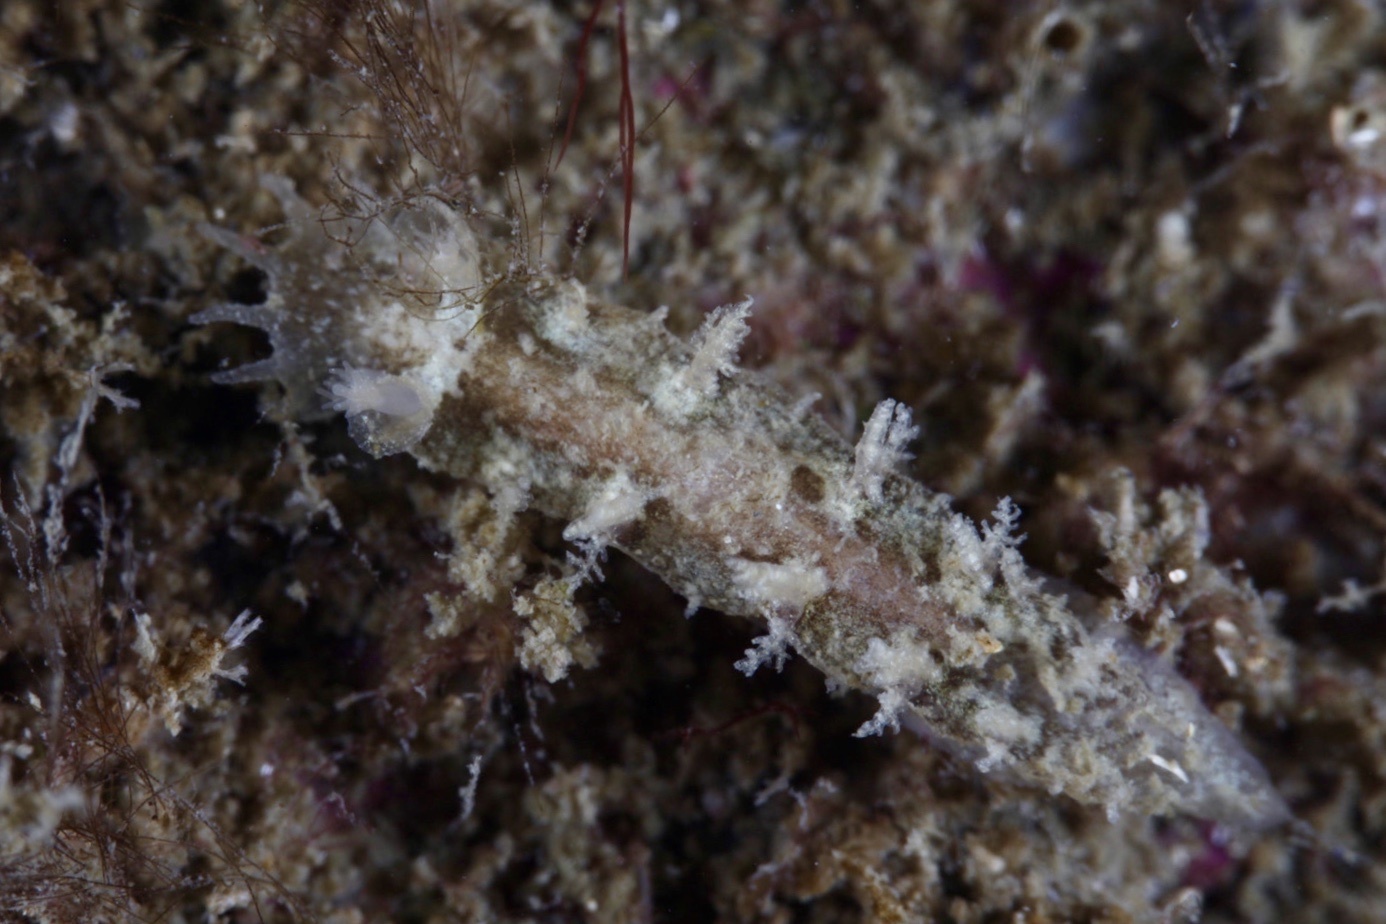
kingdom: Animalia
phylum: Mollusca
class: Gastropoda
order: Nudibranchia
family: Tritoniidae
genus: Duvaucelia
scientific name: Duvaucelia plebeia
